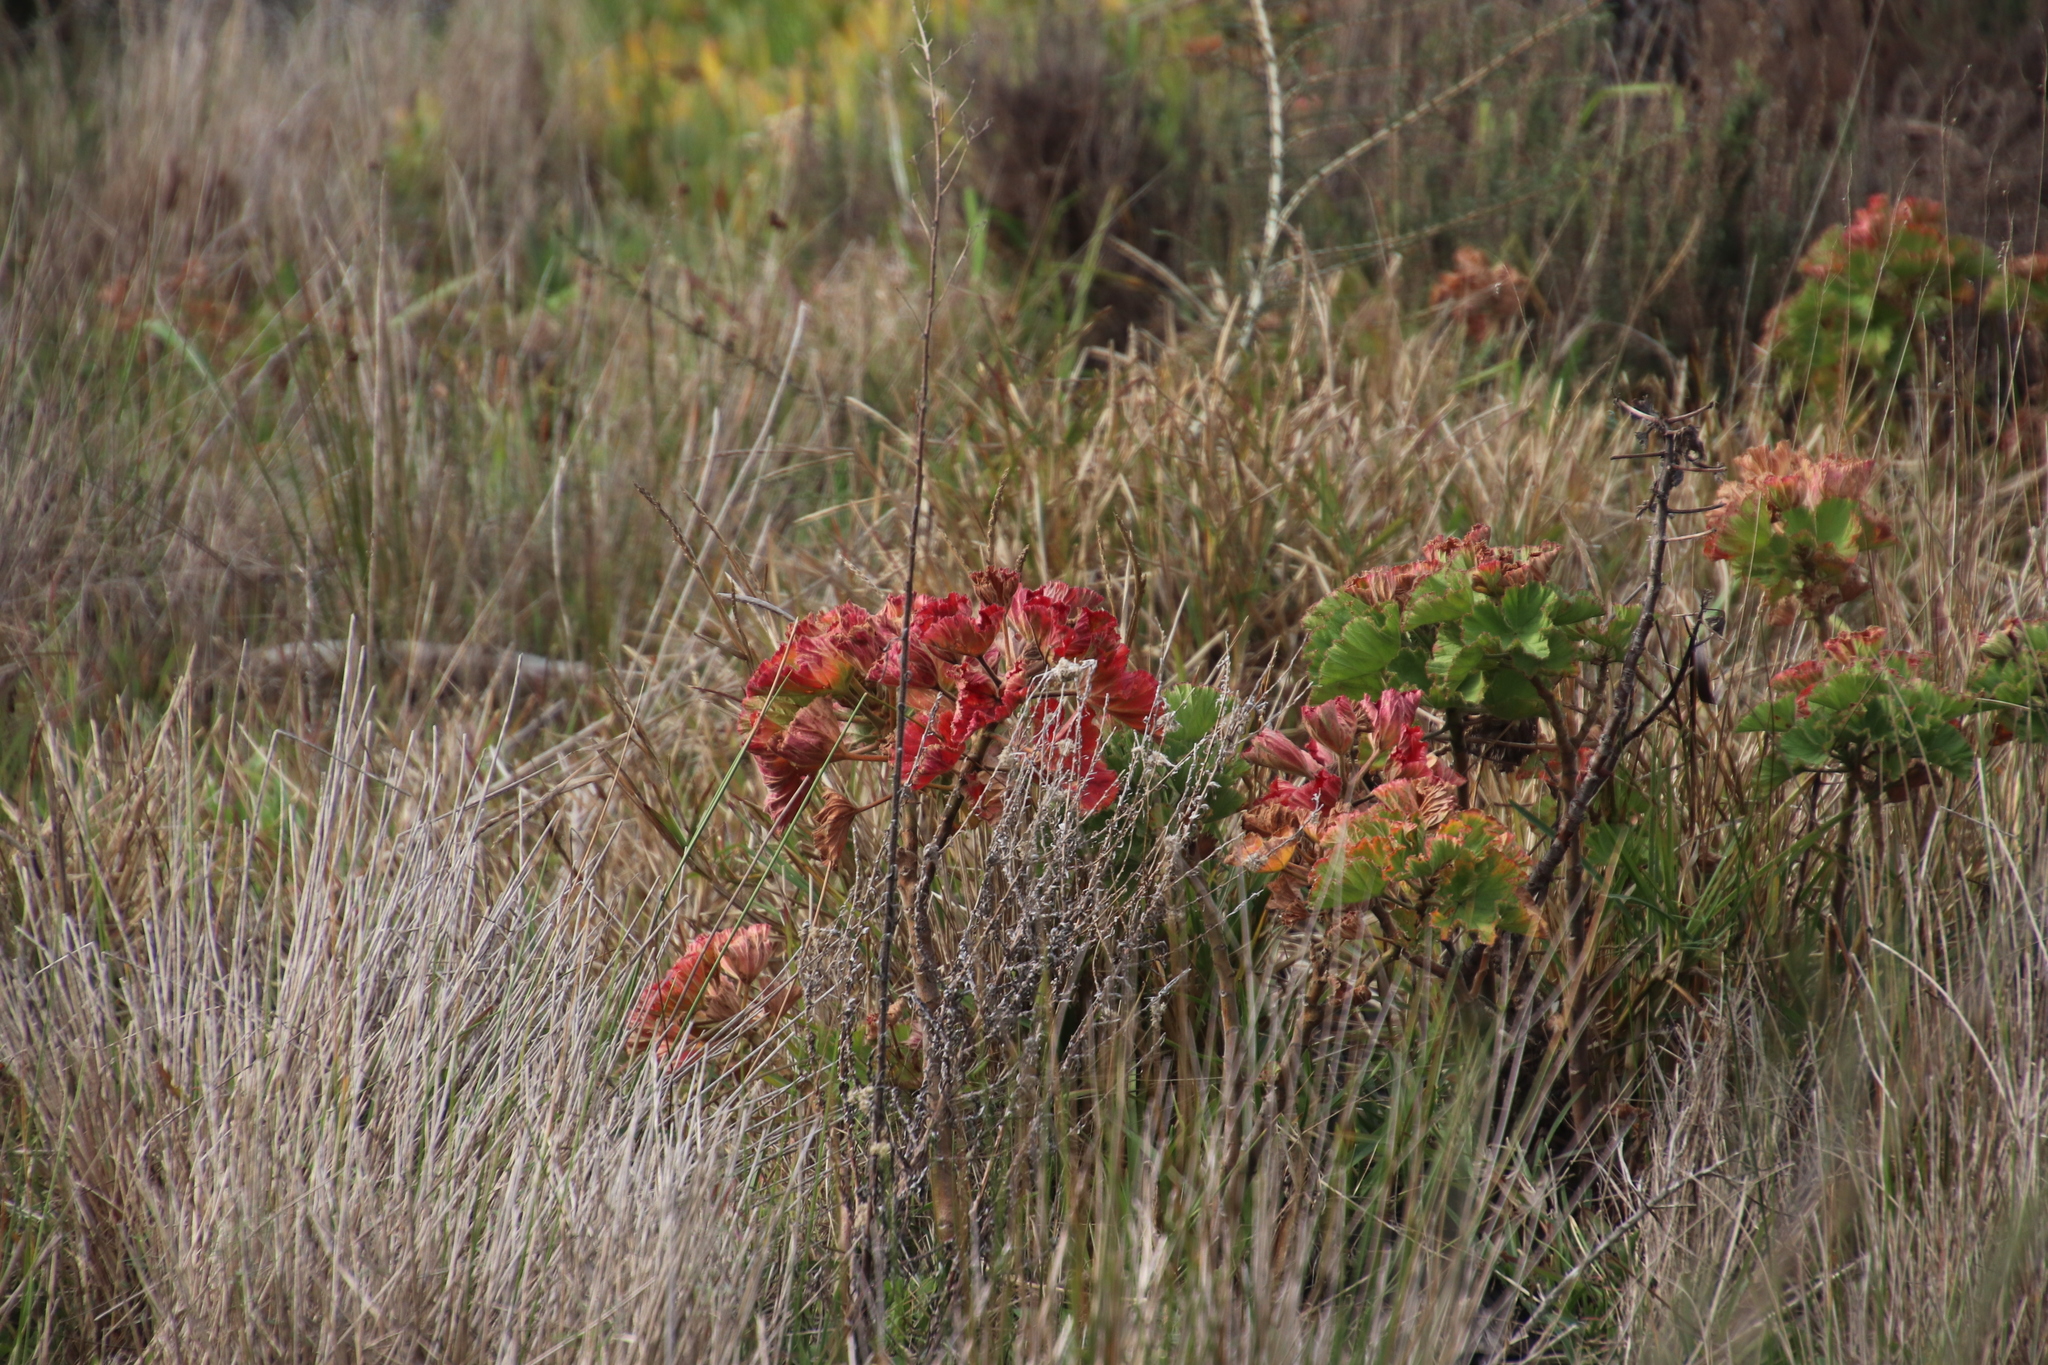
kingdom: Plantae
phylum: Tracheophyta
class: Magnoliopsida
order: Geraniales
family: Geraniaceae
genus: Pelargonium
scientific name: Pelargonium cucullatum
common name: Tree pelargonium
